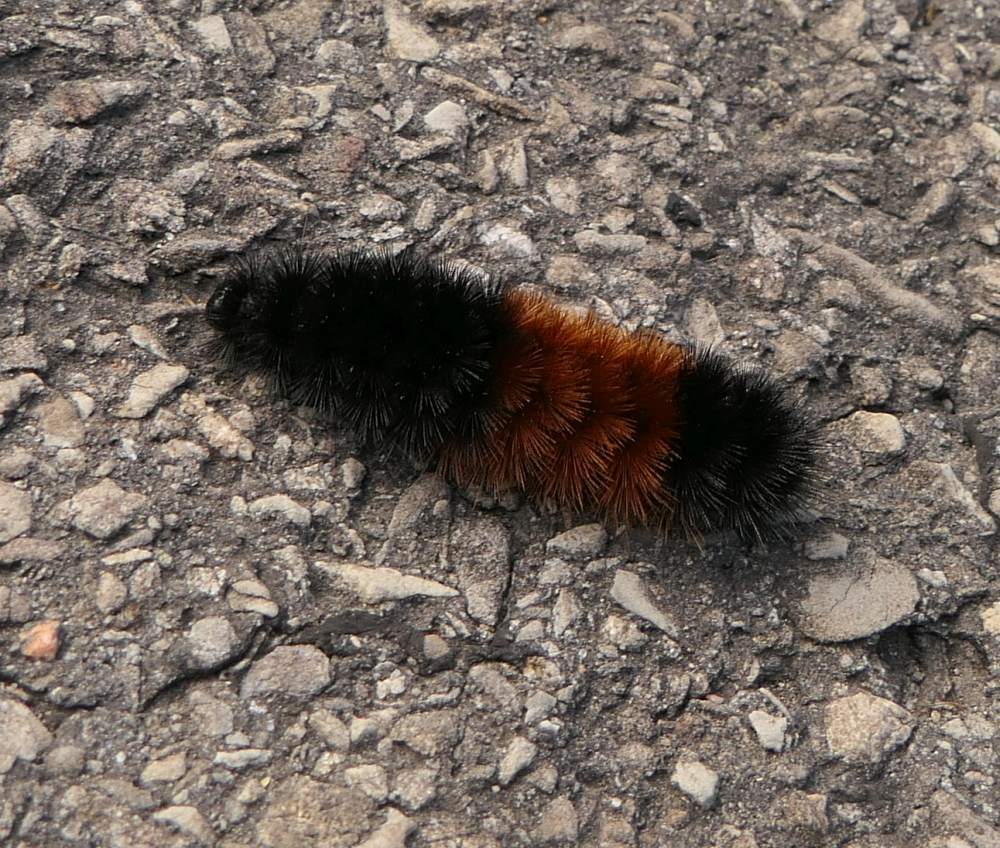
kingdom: Animalia
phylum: Arthropoda
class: Insecta
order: Lepidoptera
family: Erebidae
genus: Pyrrharctia
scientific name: Pyrrharctia isabella
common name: Isabella tiger moth
